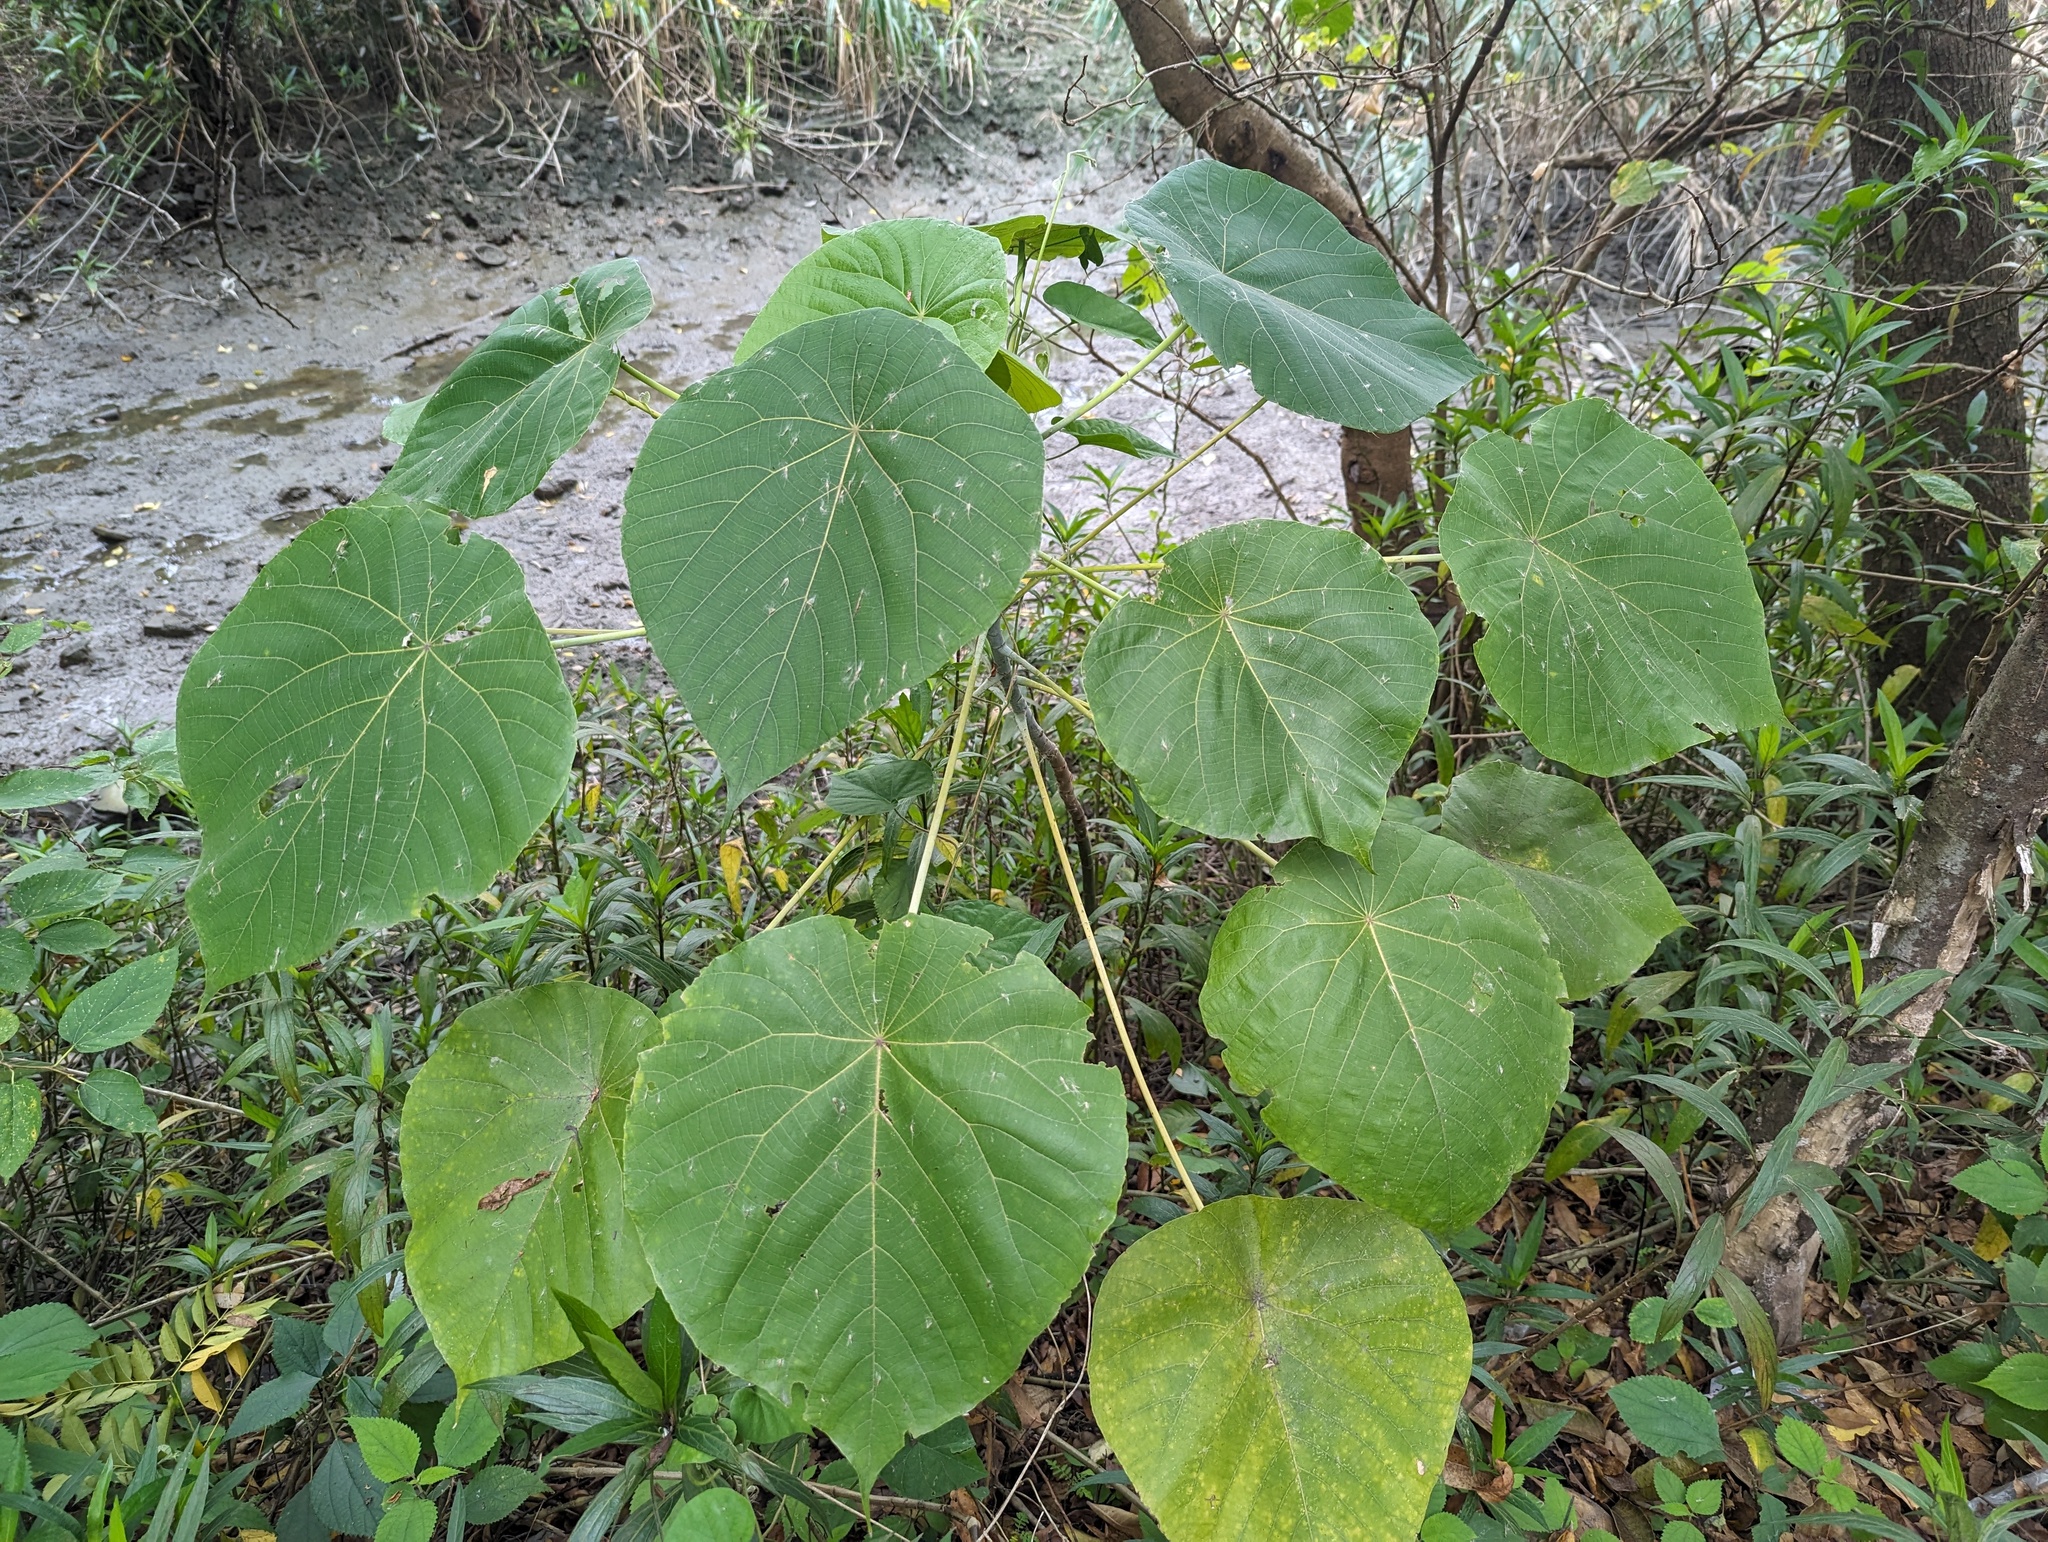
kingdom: Plantae
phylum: Tracheophyta
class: Magnoliopsida
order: Malpighiales
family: Euphorbiaceae
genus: Macaranga
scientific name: Macaranga tanarius
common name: Parasol leaf tree
